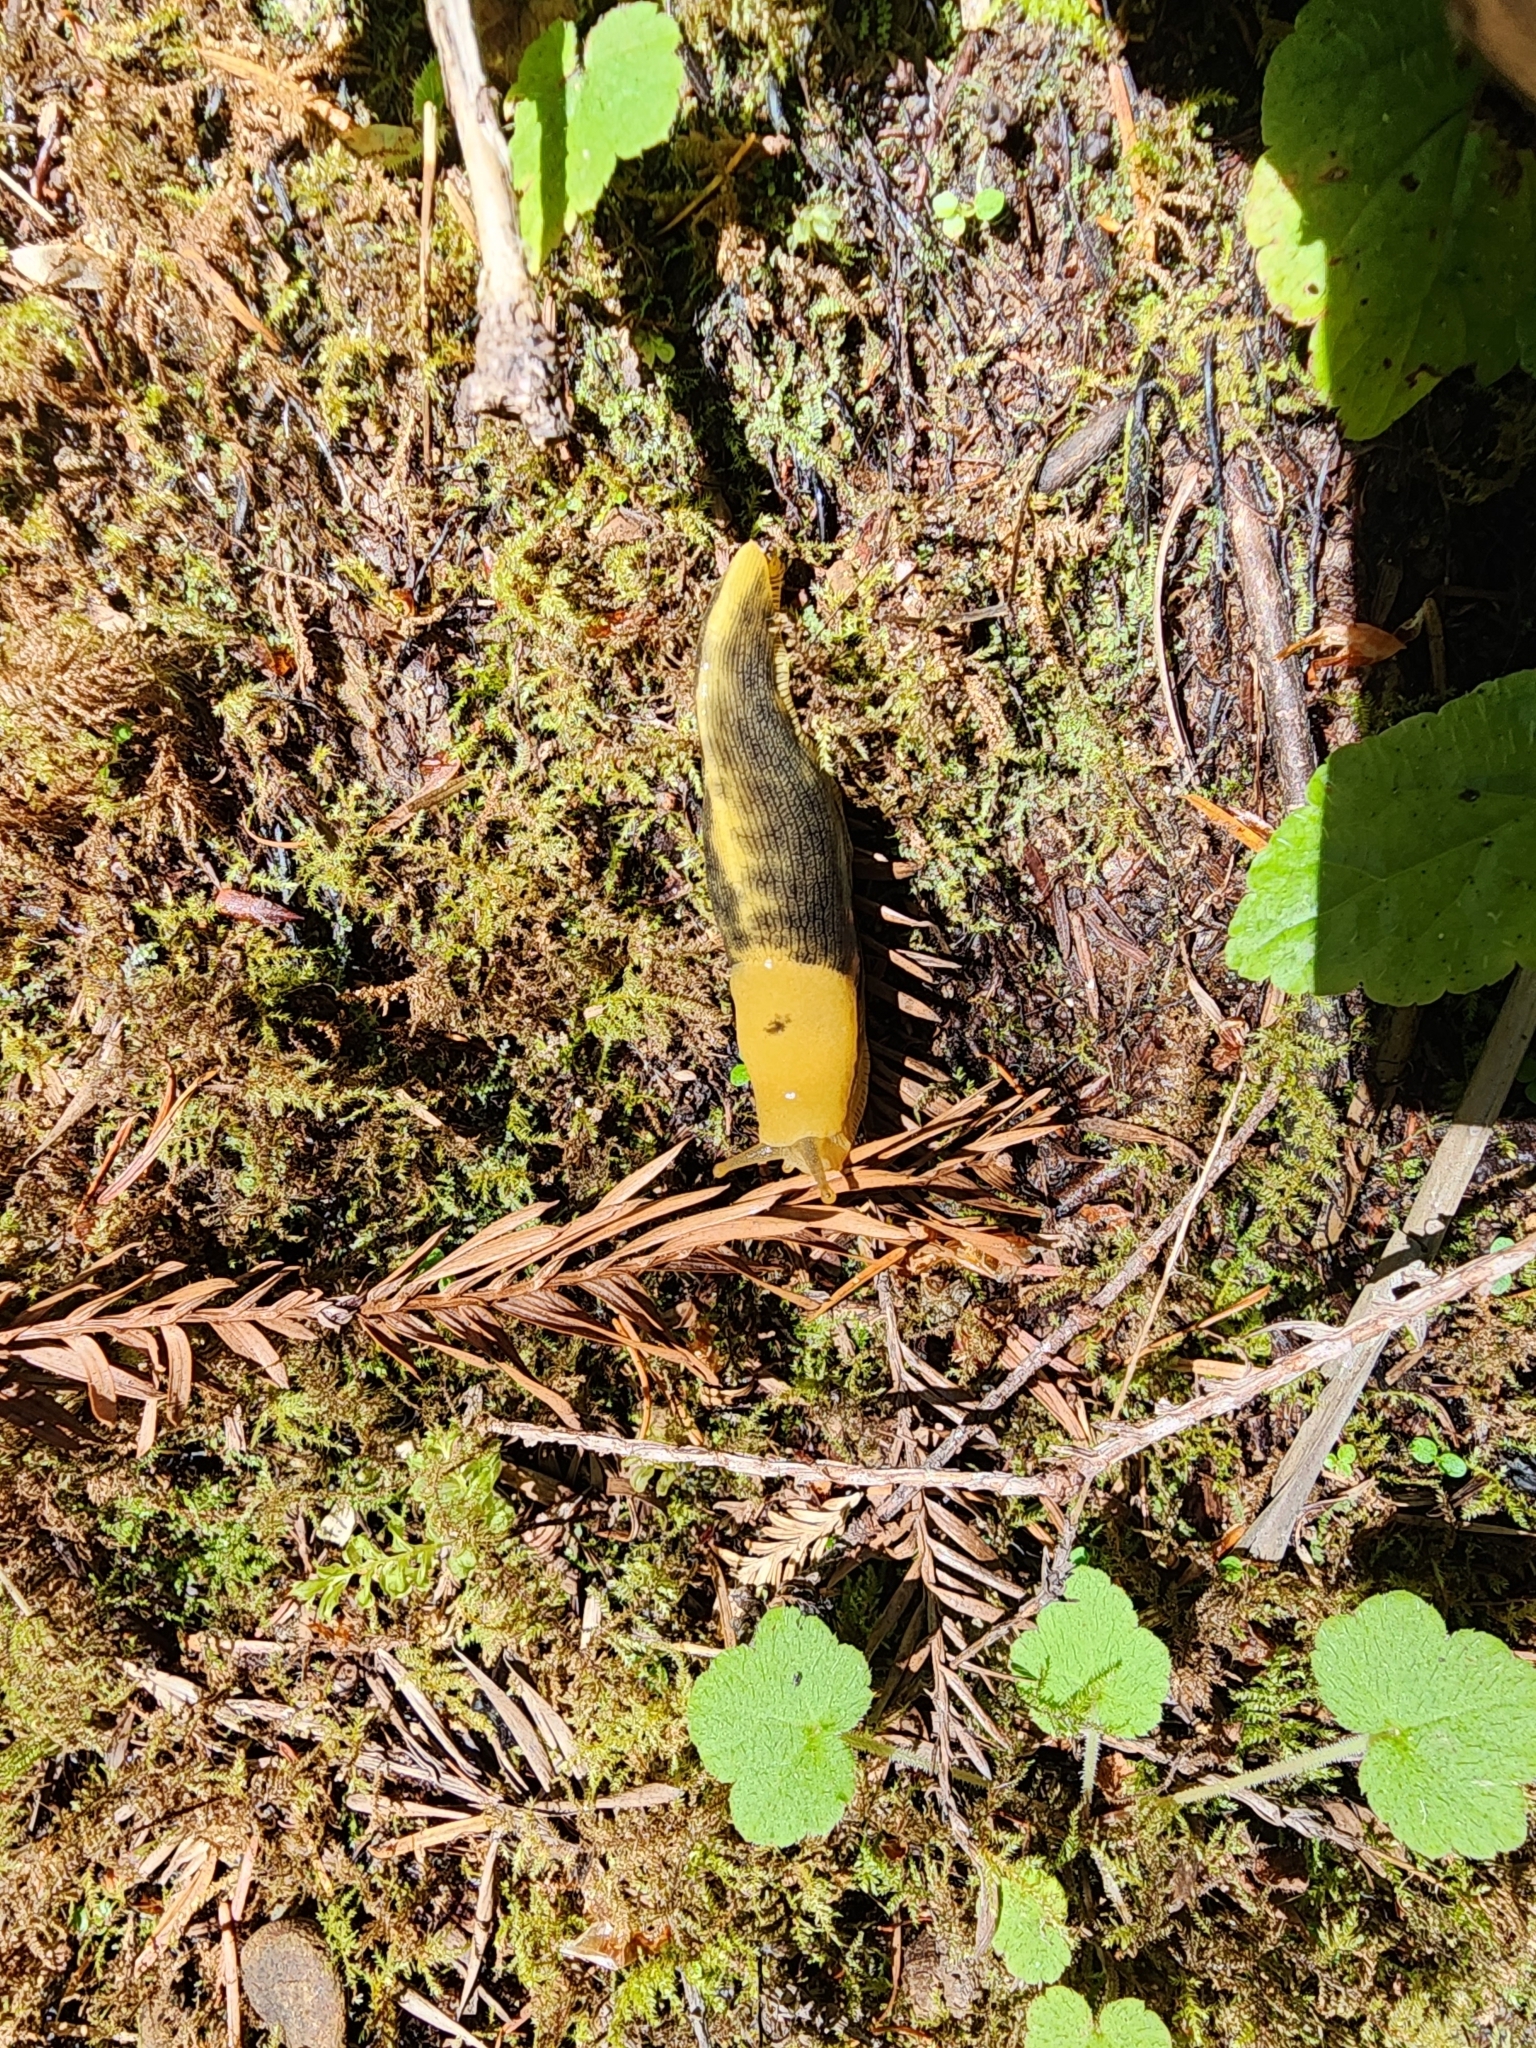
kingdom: Animalia
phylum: Mollusca
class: Gastropoda
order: Stylommatophora
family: Ariolimacidae
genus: Ariolimax
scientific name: Ariolimax buttoni
